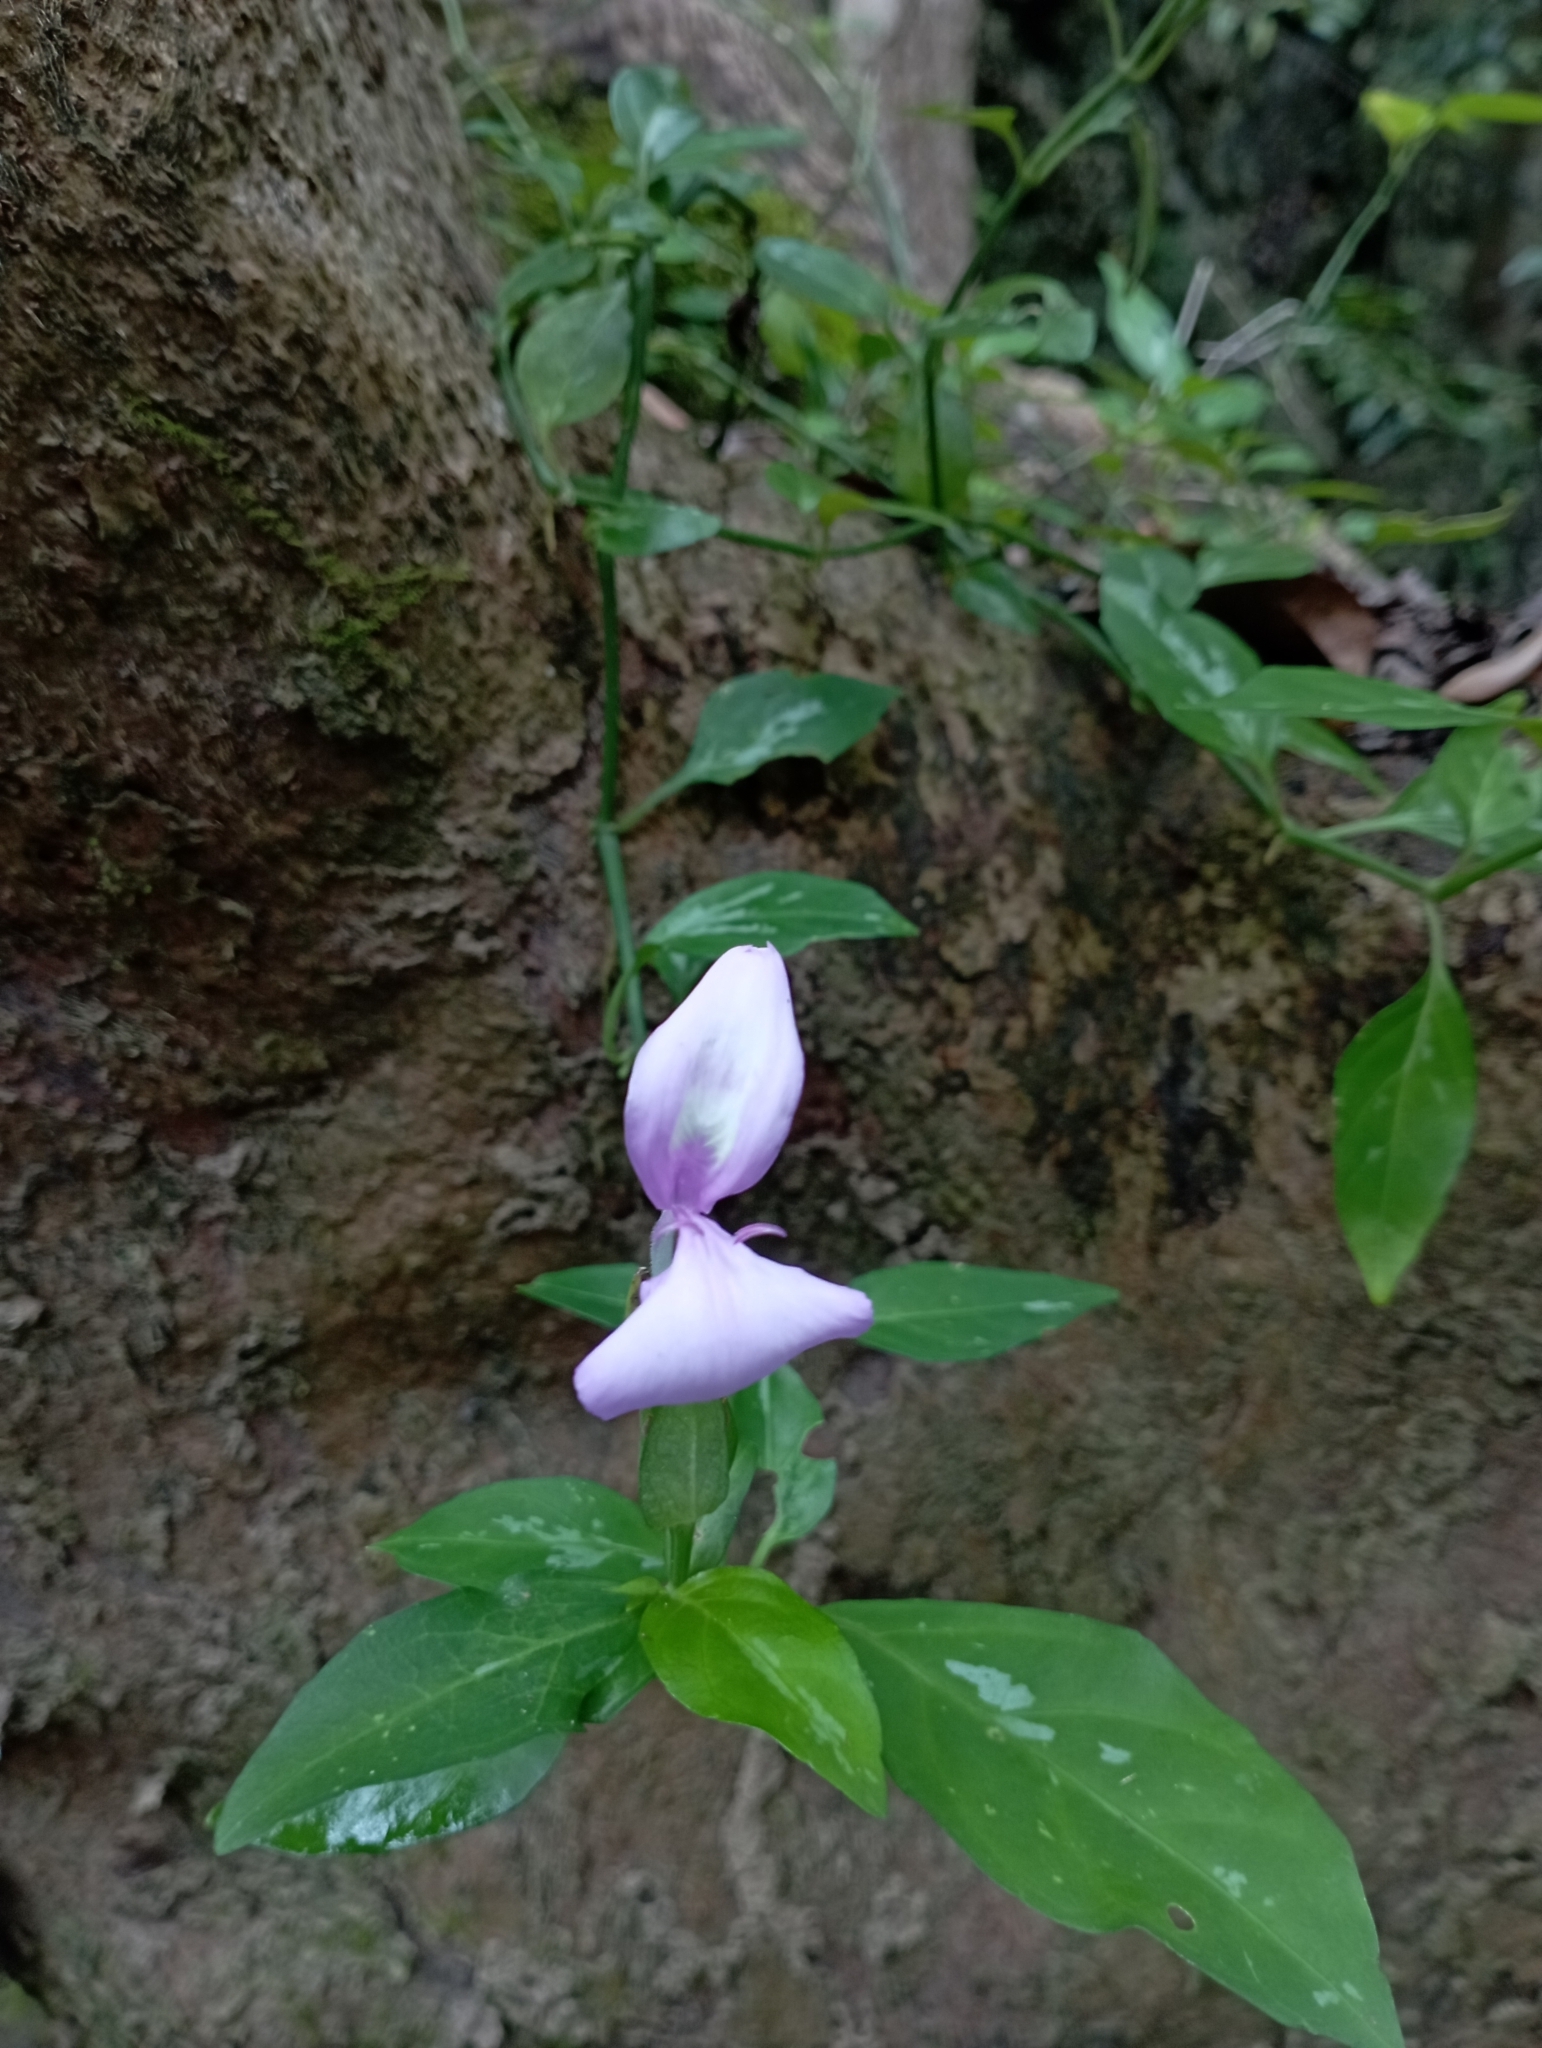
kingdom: Plantae
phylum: Tracheophyta
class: Magnoliopsida
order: Lamiales
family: Acanthaceae
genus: Dicliptera
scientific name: Dicliptera tinctoria
